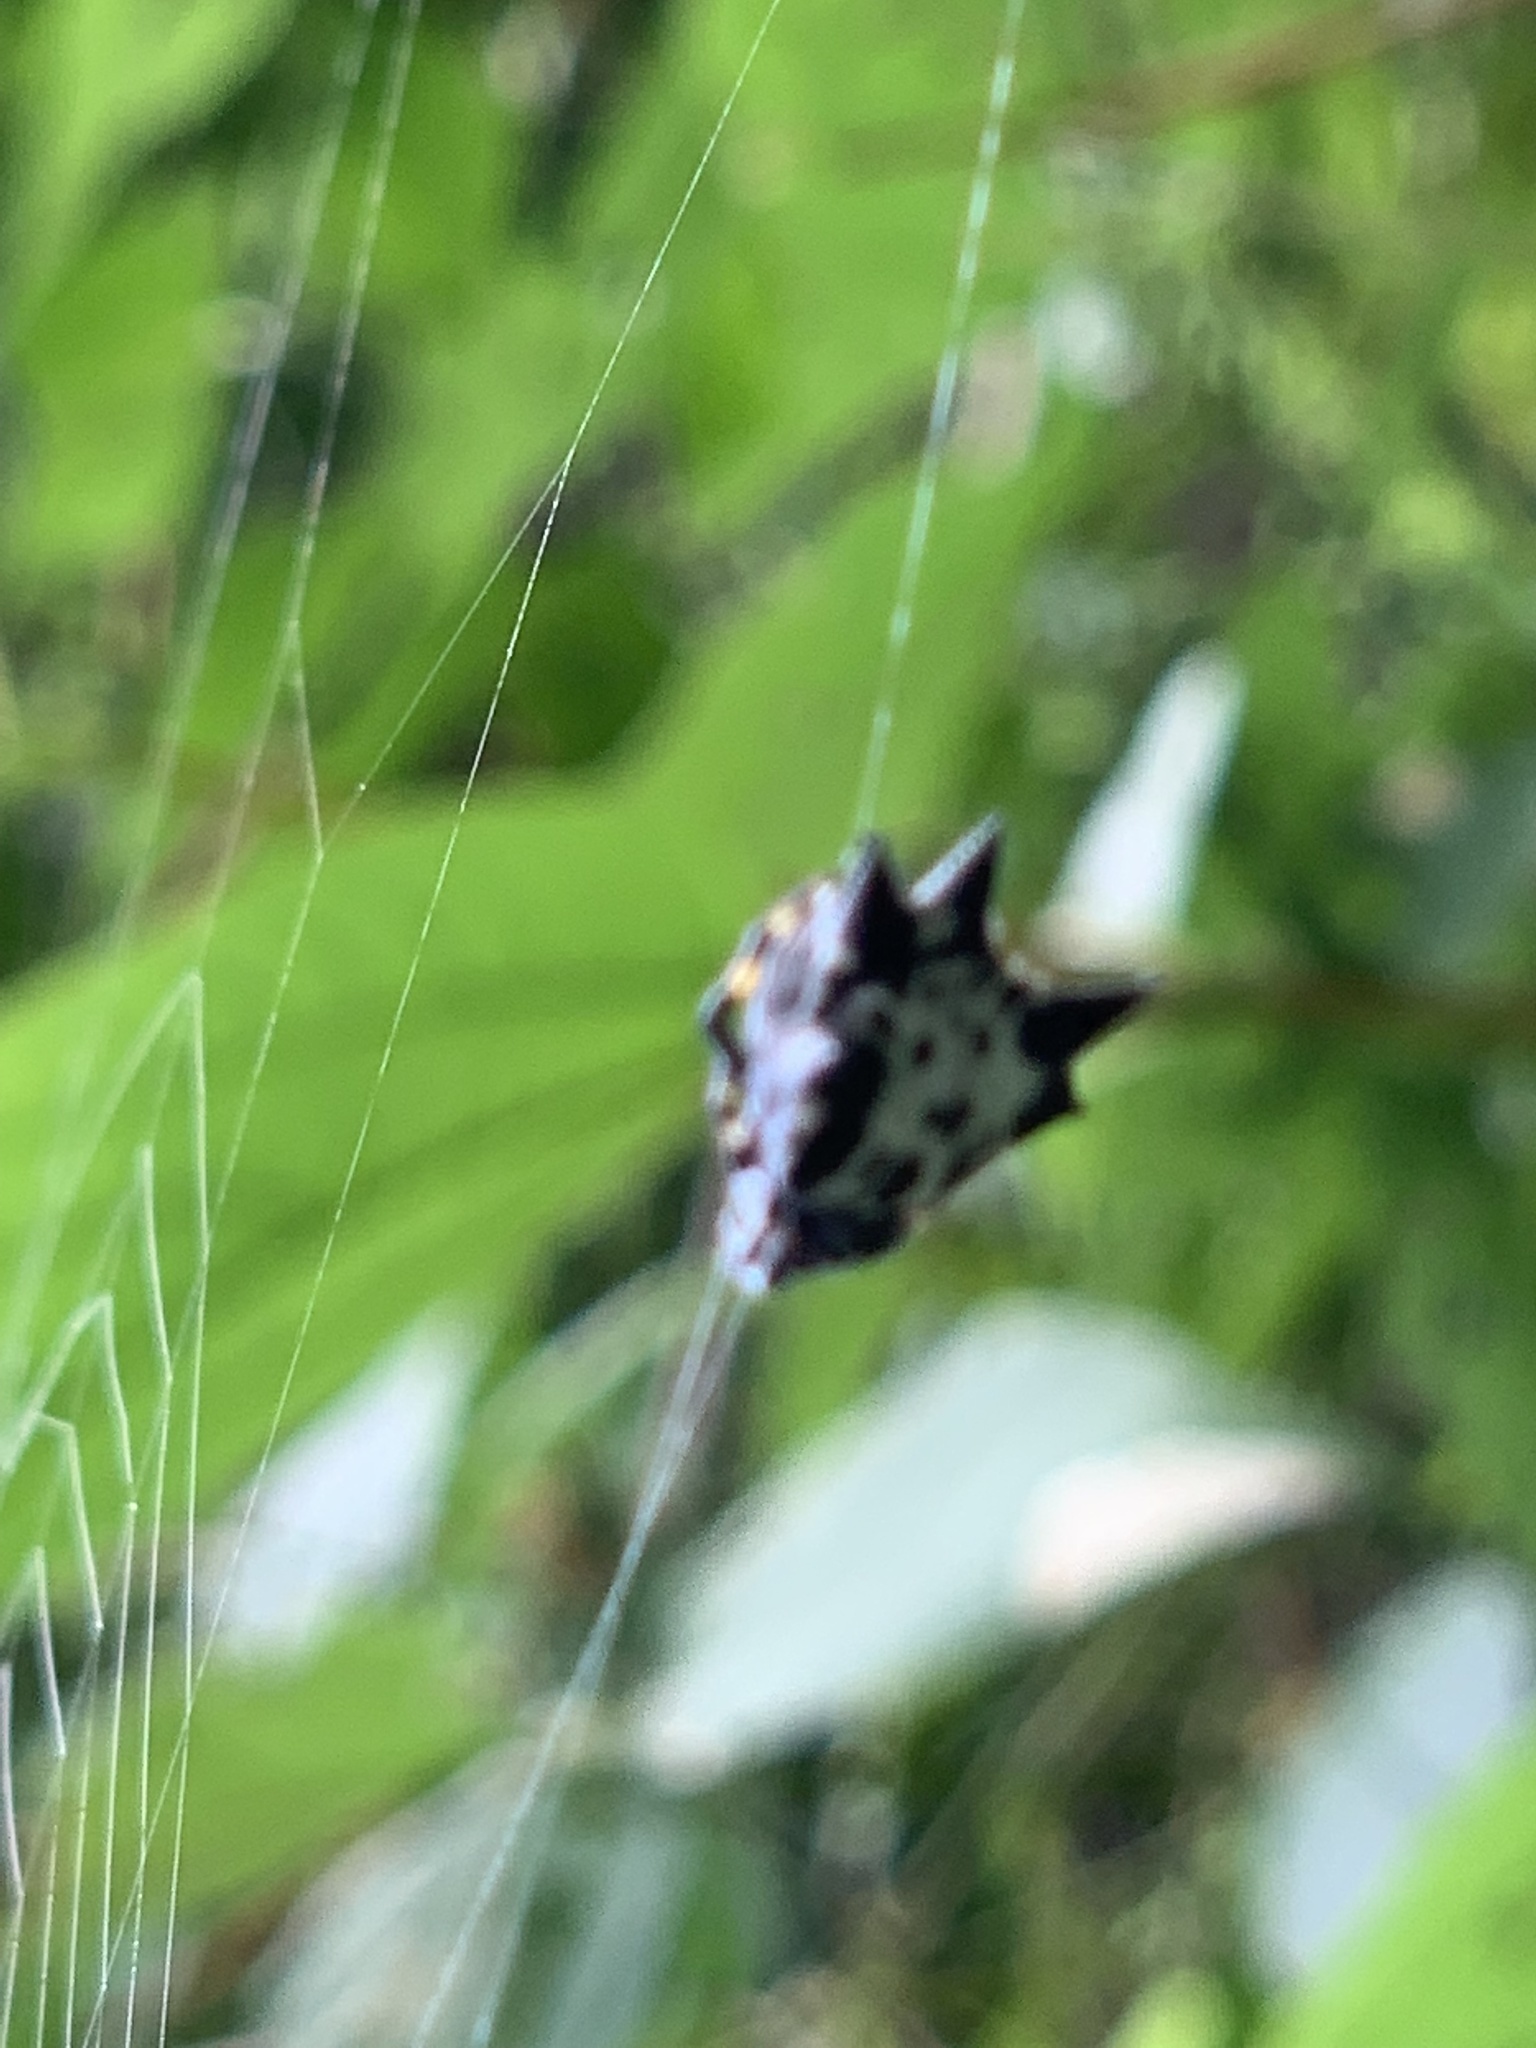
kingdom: Animalia
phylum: Arthropoda
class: Arachnida
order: Araneae
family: Araneidae
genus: Gasteracantha
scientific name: Gasteracantha kuhli
